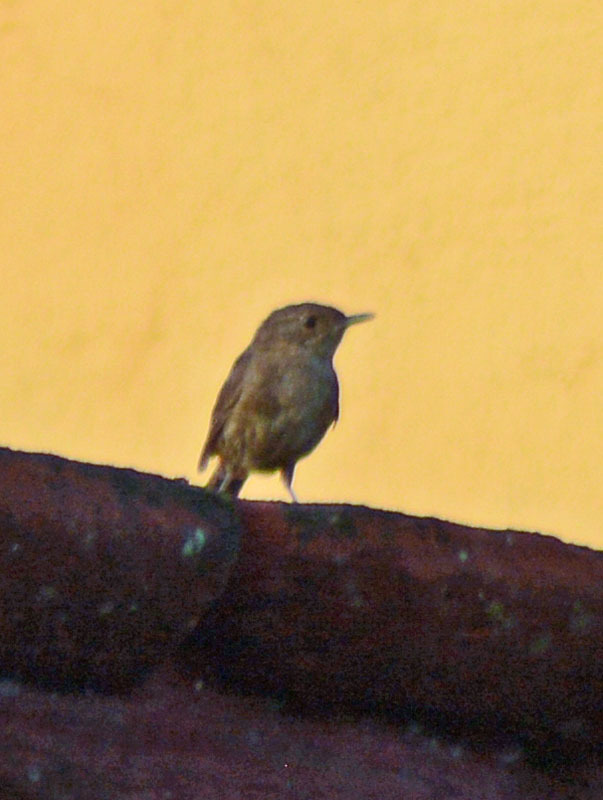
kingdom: Animalia
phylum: Chordata
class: Aves
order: Passeriformes
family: Troglodytidae
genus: Troglodytes
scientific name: Troglodytes aedon
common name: House wren
